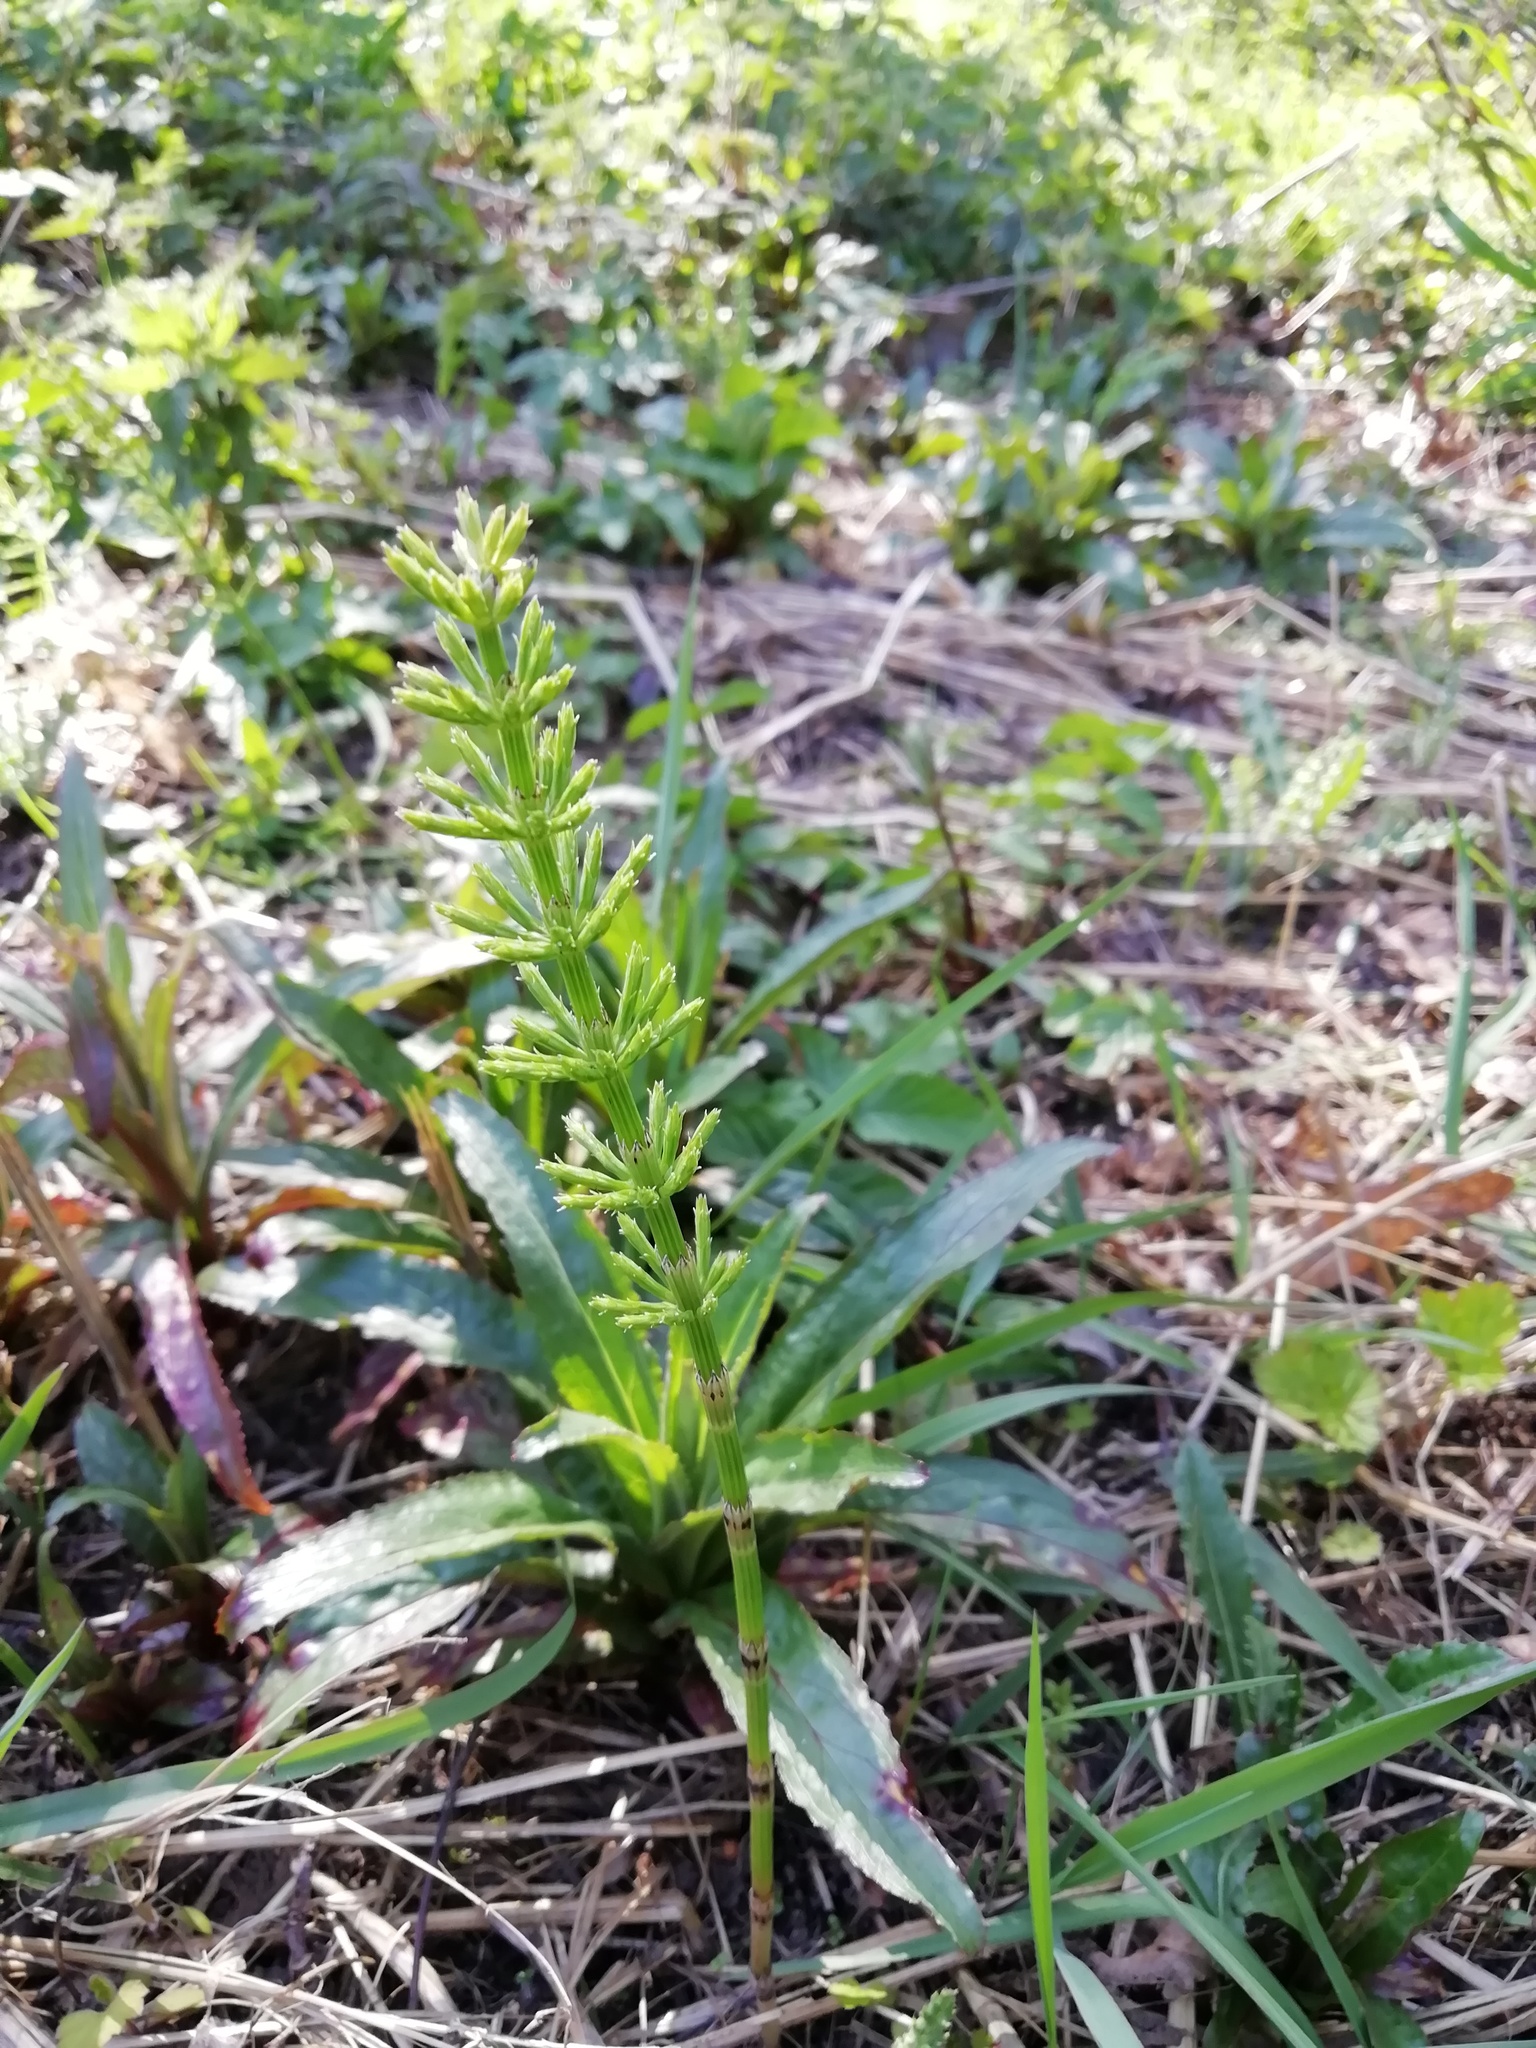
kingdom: Plantae
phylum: Tracheophyta
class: Polypodiopsida
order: Equisetales
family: Equisetaceae
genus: Equisetum
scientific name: Equisetum arvense
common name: Field horsetail
